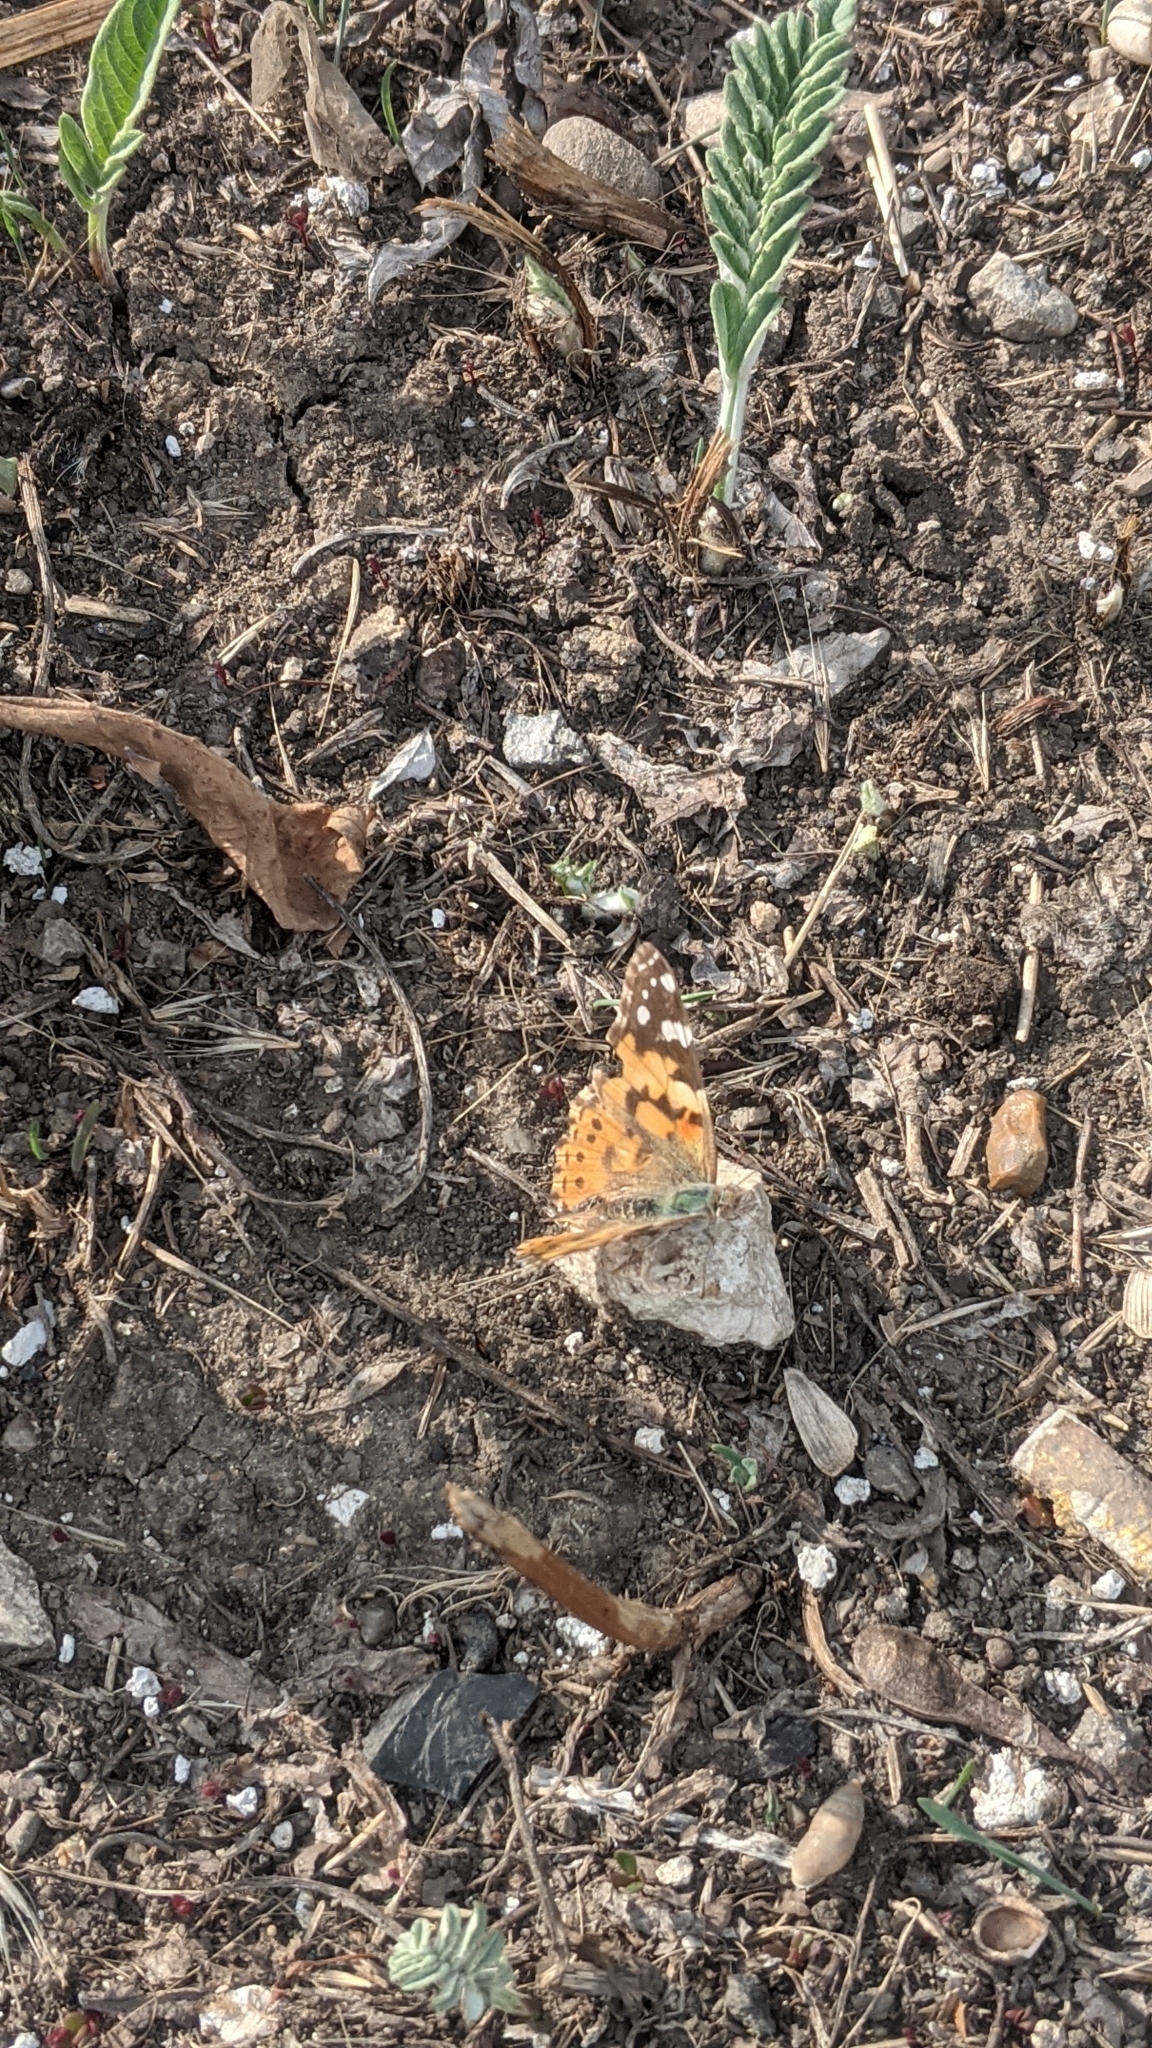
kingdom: Animalia
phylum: Arthropoda
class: Insecta
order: Lepidoptera
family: Nymphalidae
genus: Vanessa
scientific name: Vanessa cardui
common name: Painted lady
